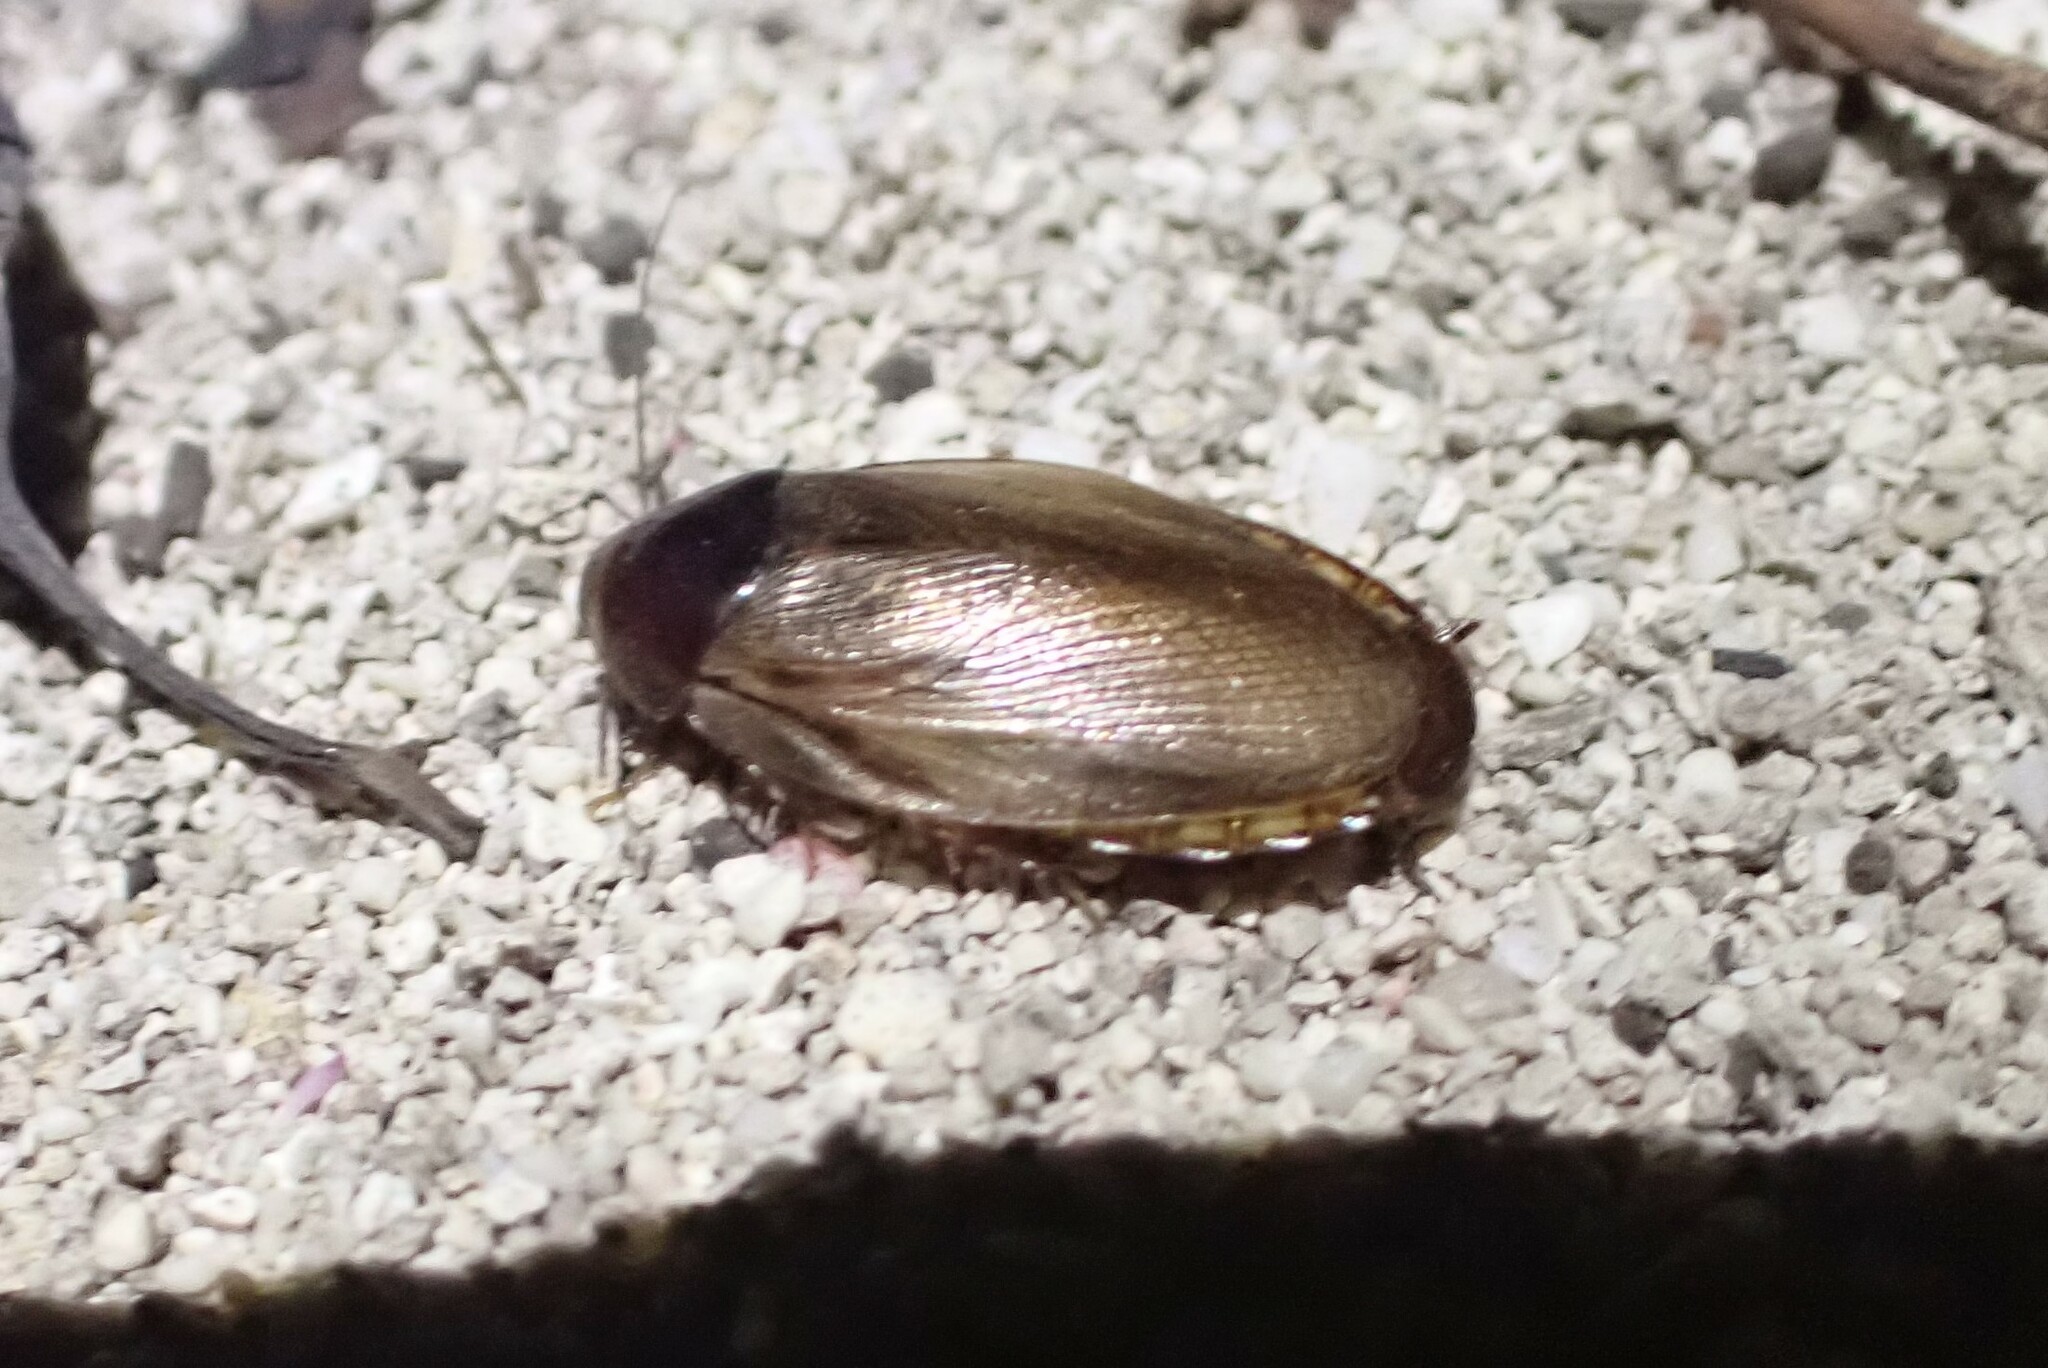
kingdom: Animalia
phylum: Arthropoda
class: Insecta
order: Blattodea
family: Blaberidae
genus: Pycnoscelus
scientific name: Pycnoscelus surinamensis
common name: Surinam cockroach
